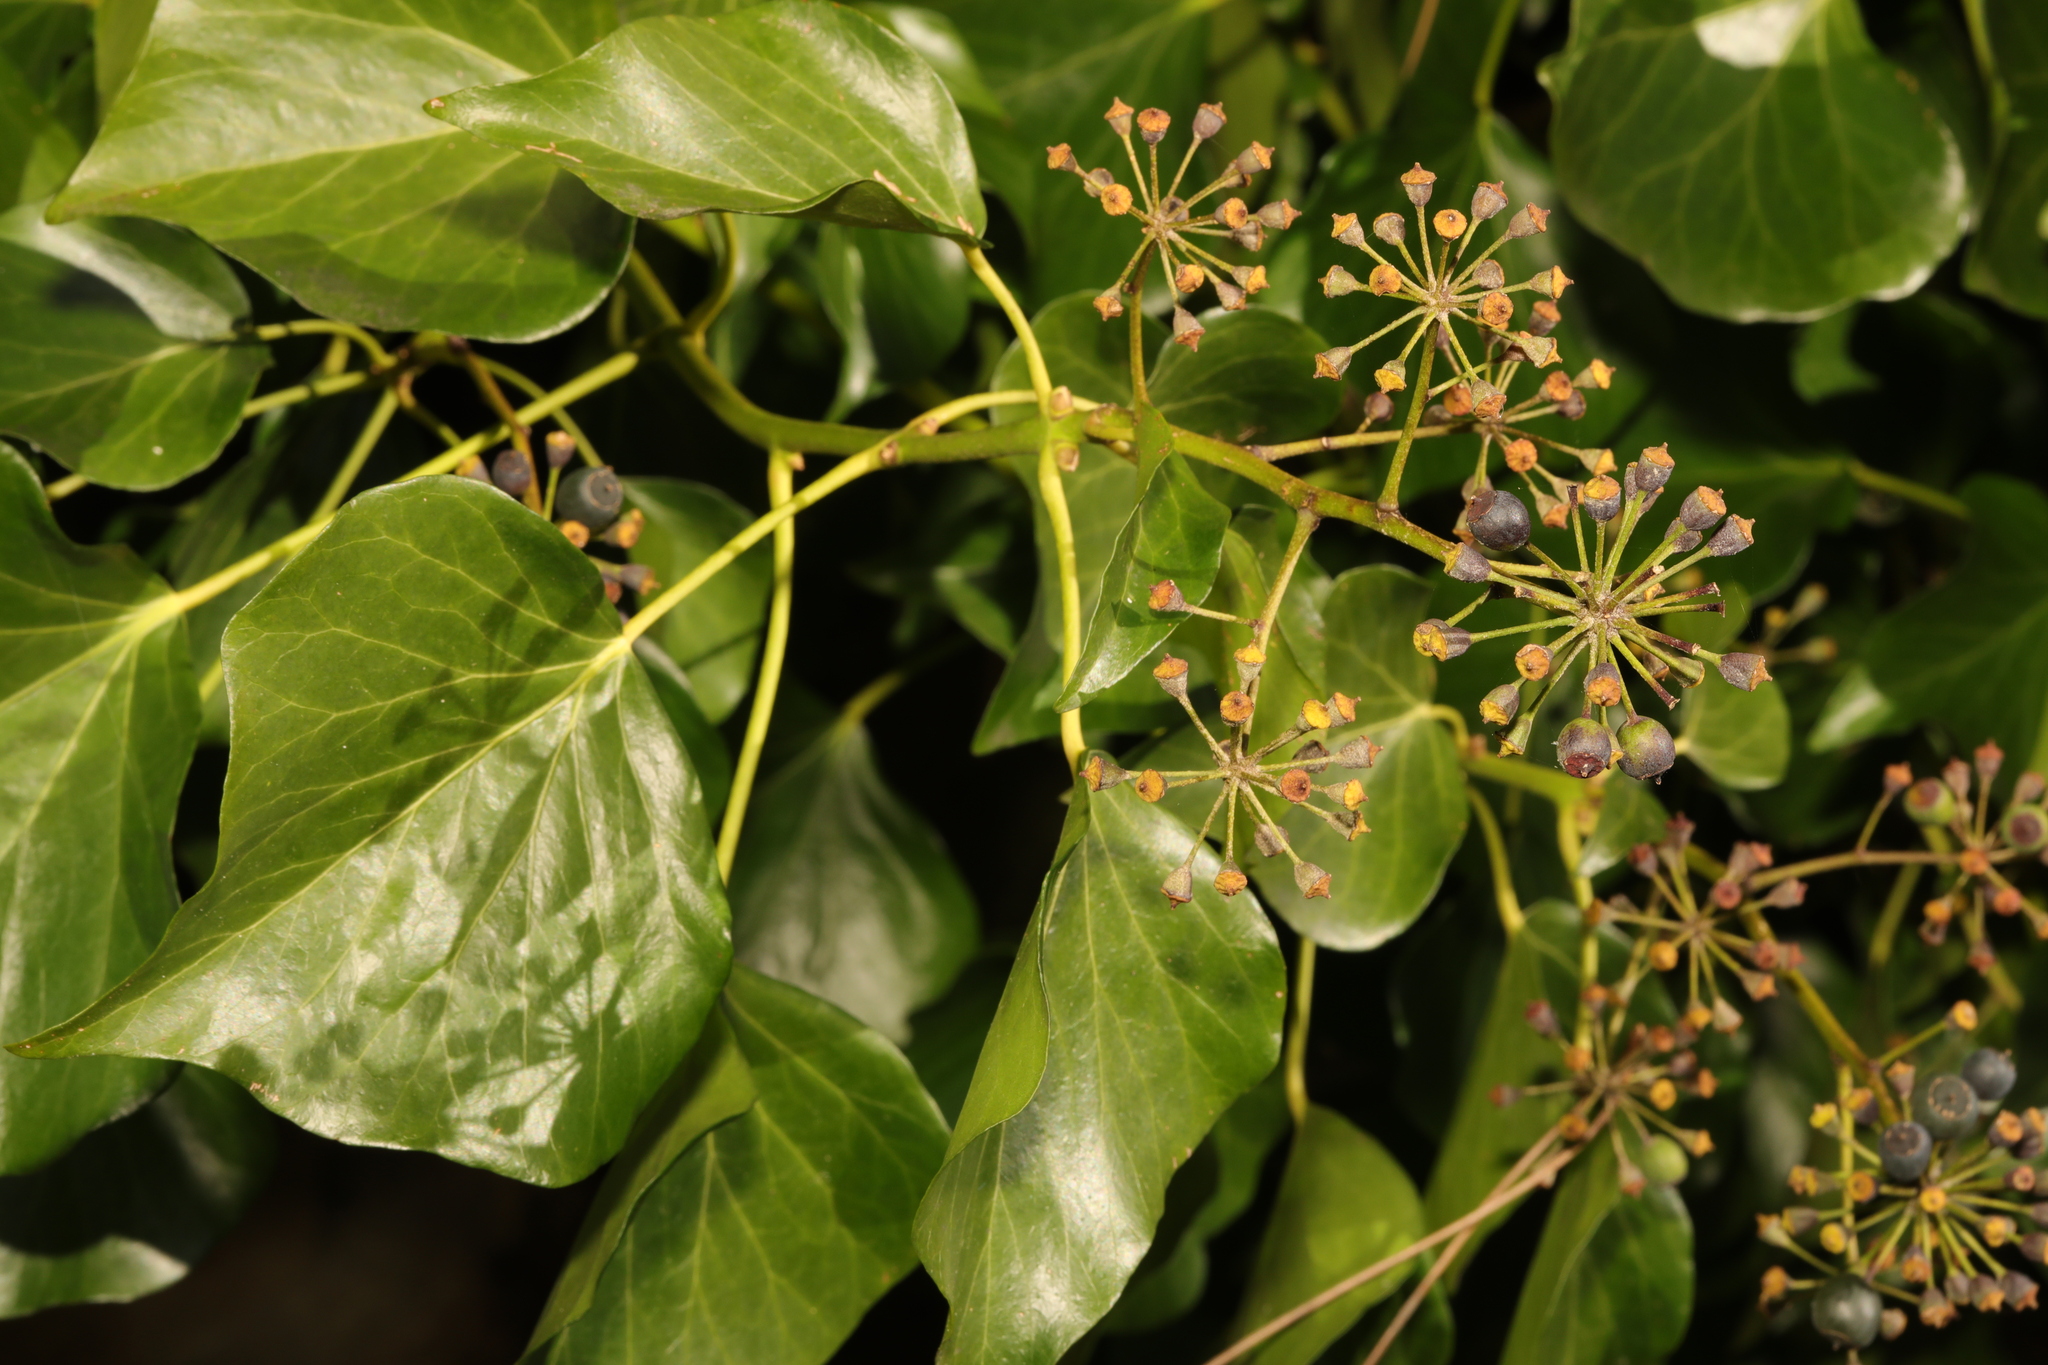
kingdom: Plantae
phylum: Tracheophyta
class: Magnoliopsida
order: Apiales
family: Araliaceae
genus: Hedera
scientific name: Hedera colchica
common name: Persian ivy
